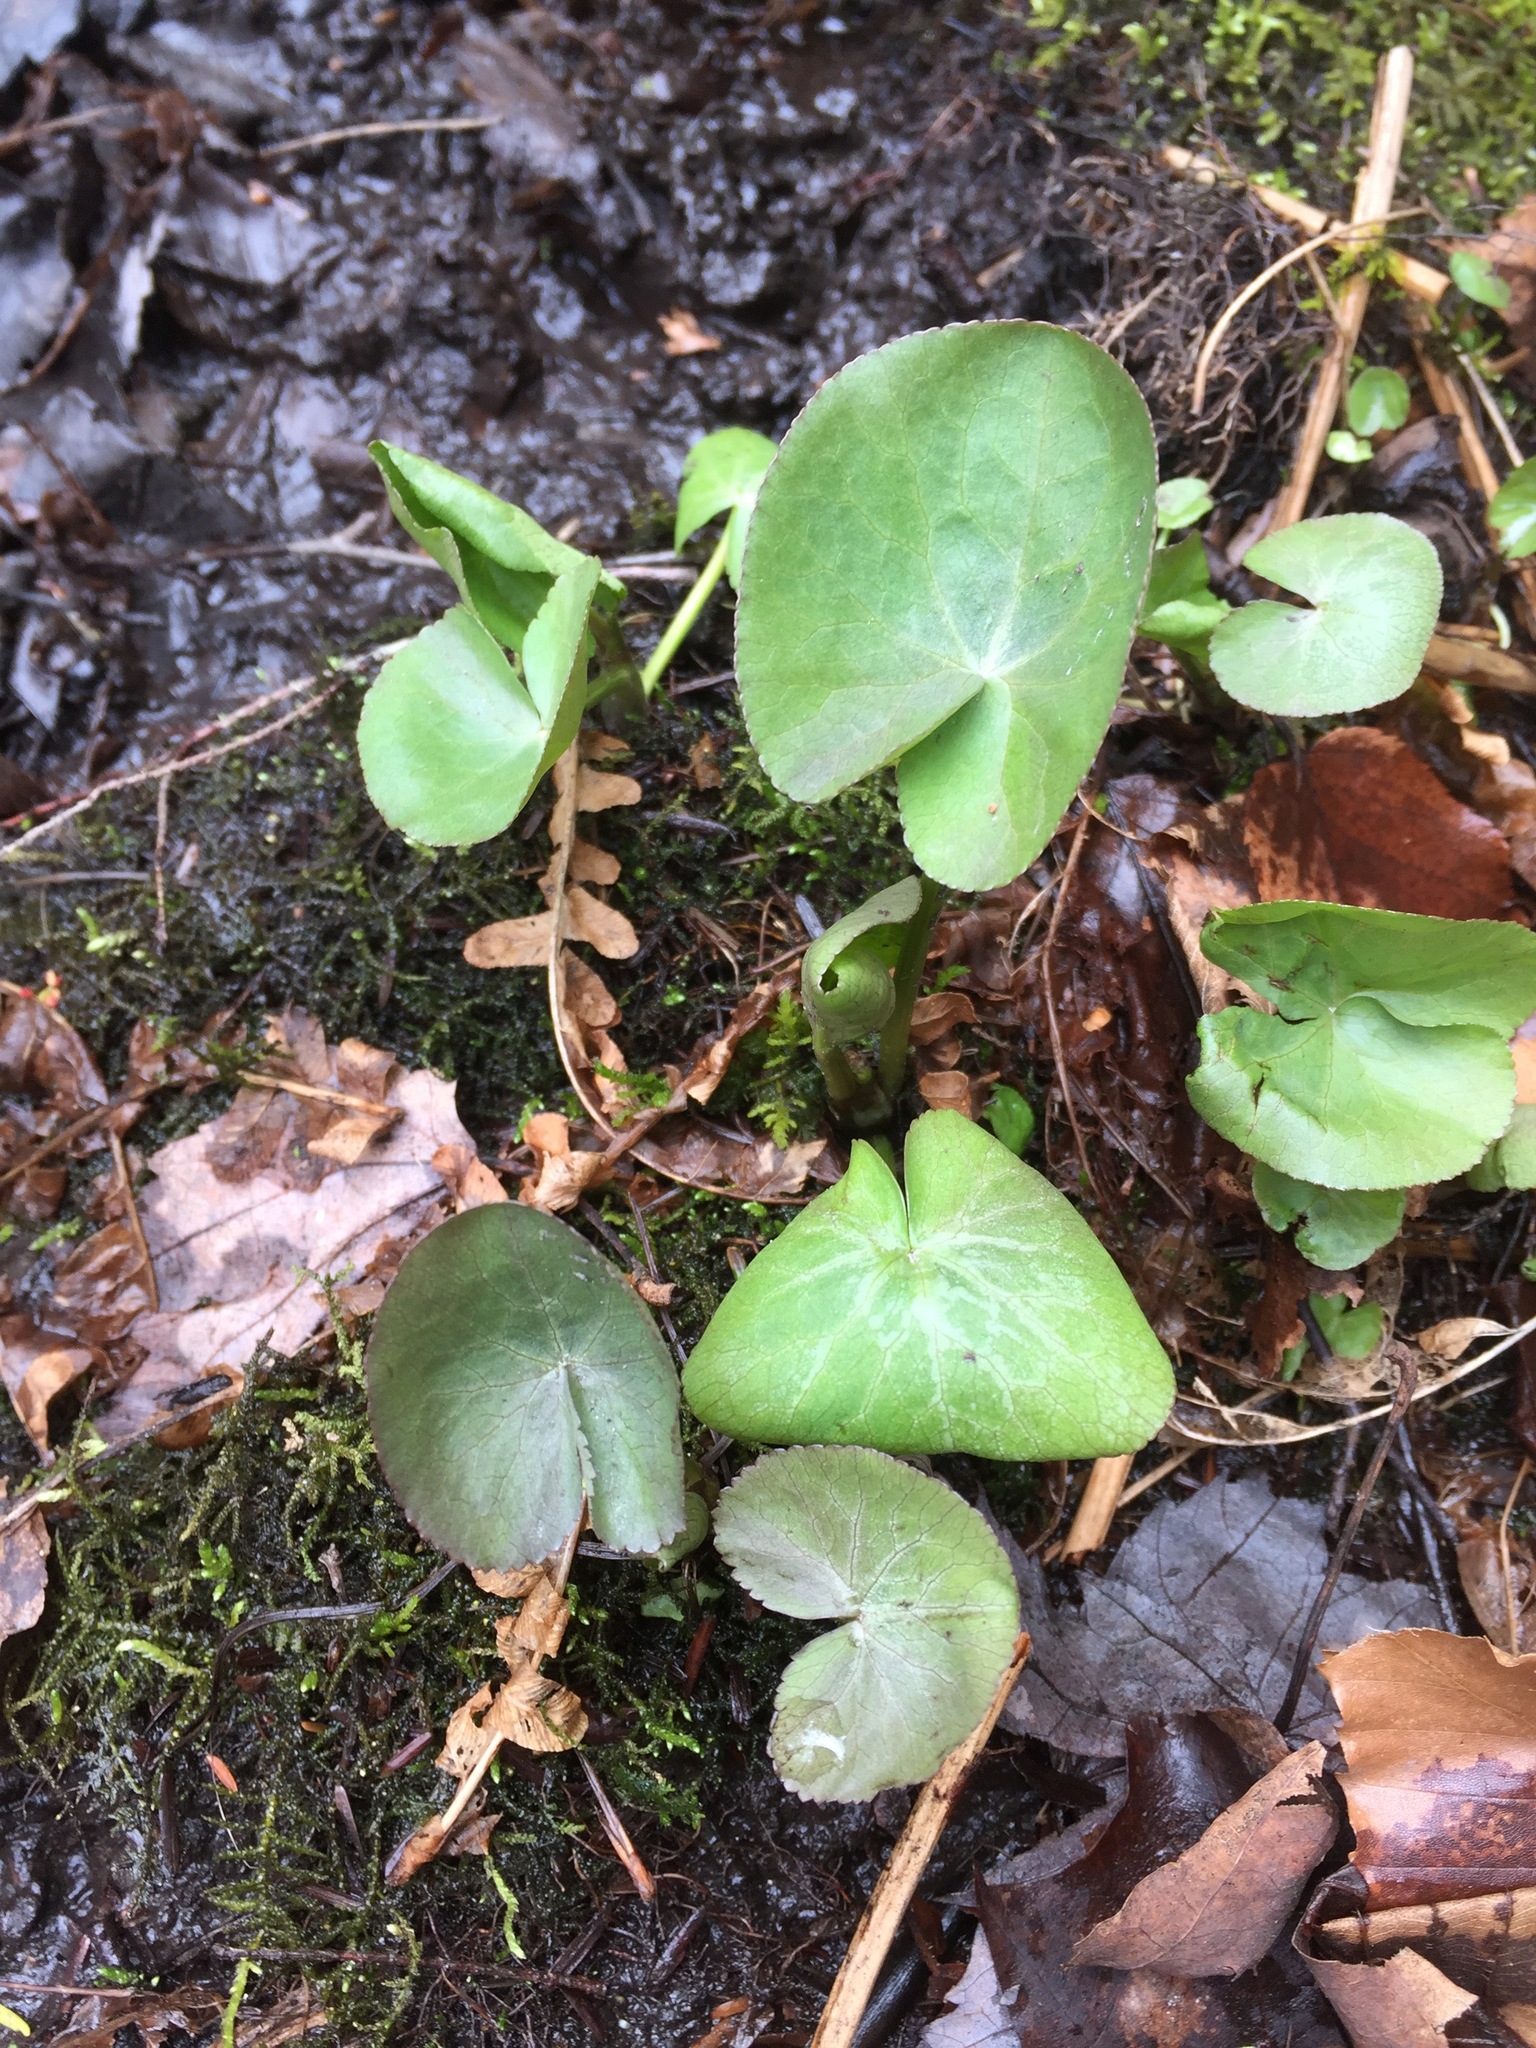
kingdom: Plantae
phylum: Tracheophyta
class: Magnoliopsida
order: Ranunculales
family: Ranunculaceae
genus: Caltha
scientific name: Caltha palustris
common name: Marsh marigold
